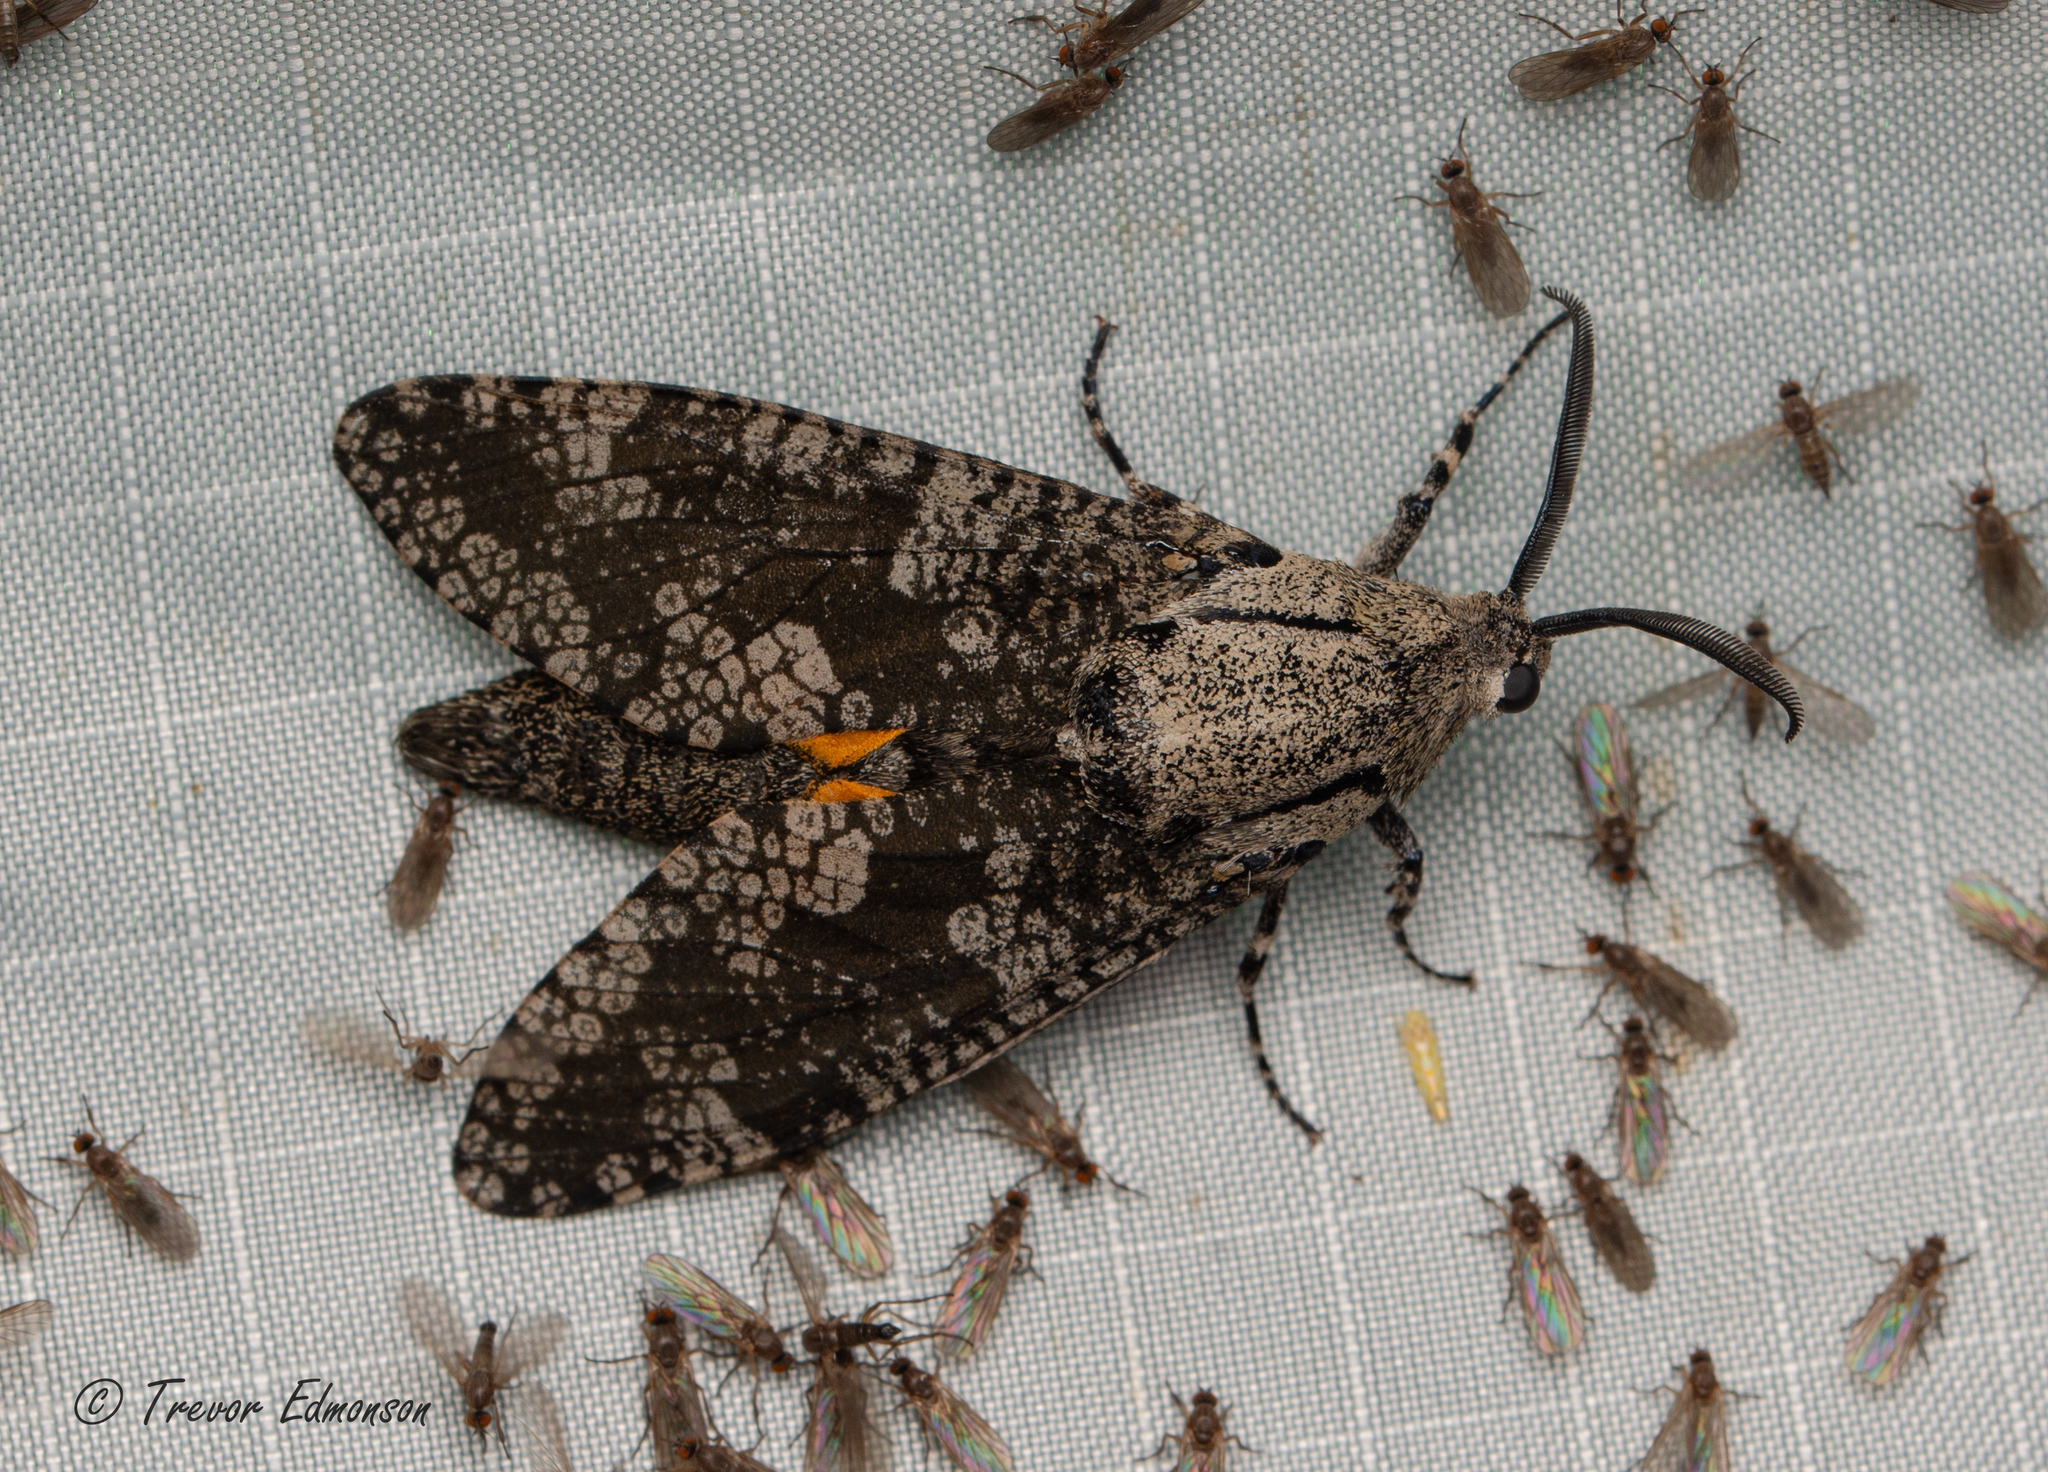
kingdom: Animalia
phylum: Arthropoda
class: Insecta
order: Lepidoptera
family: Cossidae
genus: Prionoxystus
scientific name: Prionoxystus robiniae
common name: Carpenterworm
